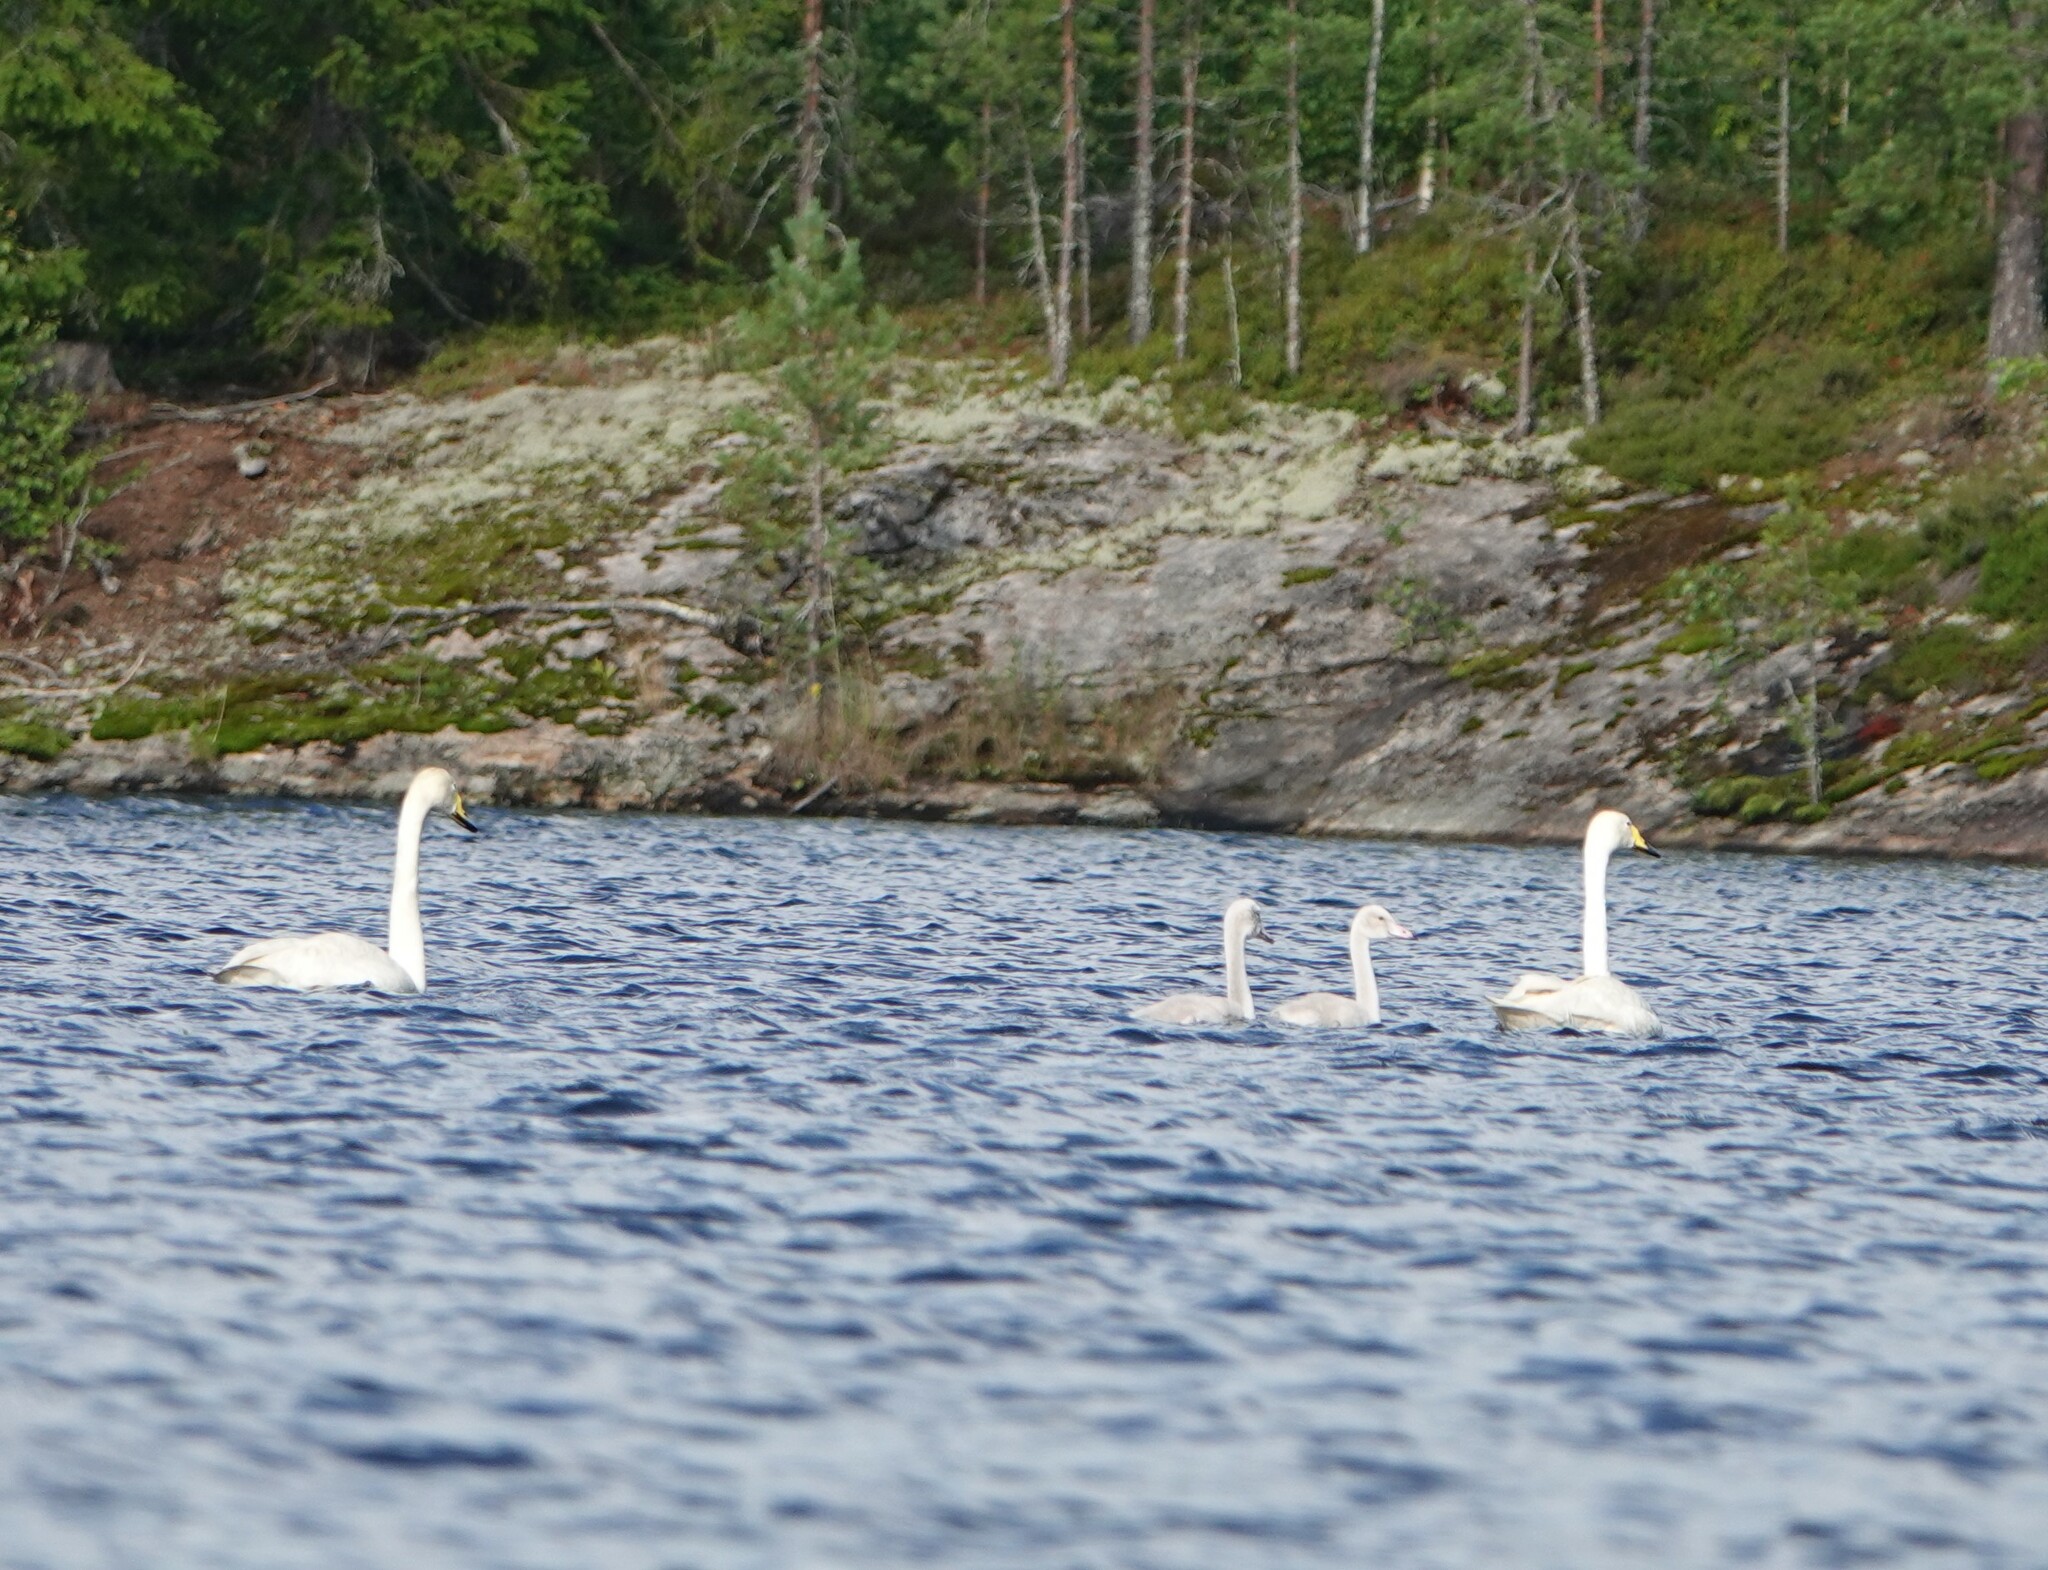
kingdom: Animalia
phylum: Chordata
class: Aves
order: Anseriformes
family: Anatidae
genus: Cygnus
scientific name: Cygnus cygnus
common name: Whooper swan
